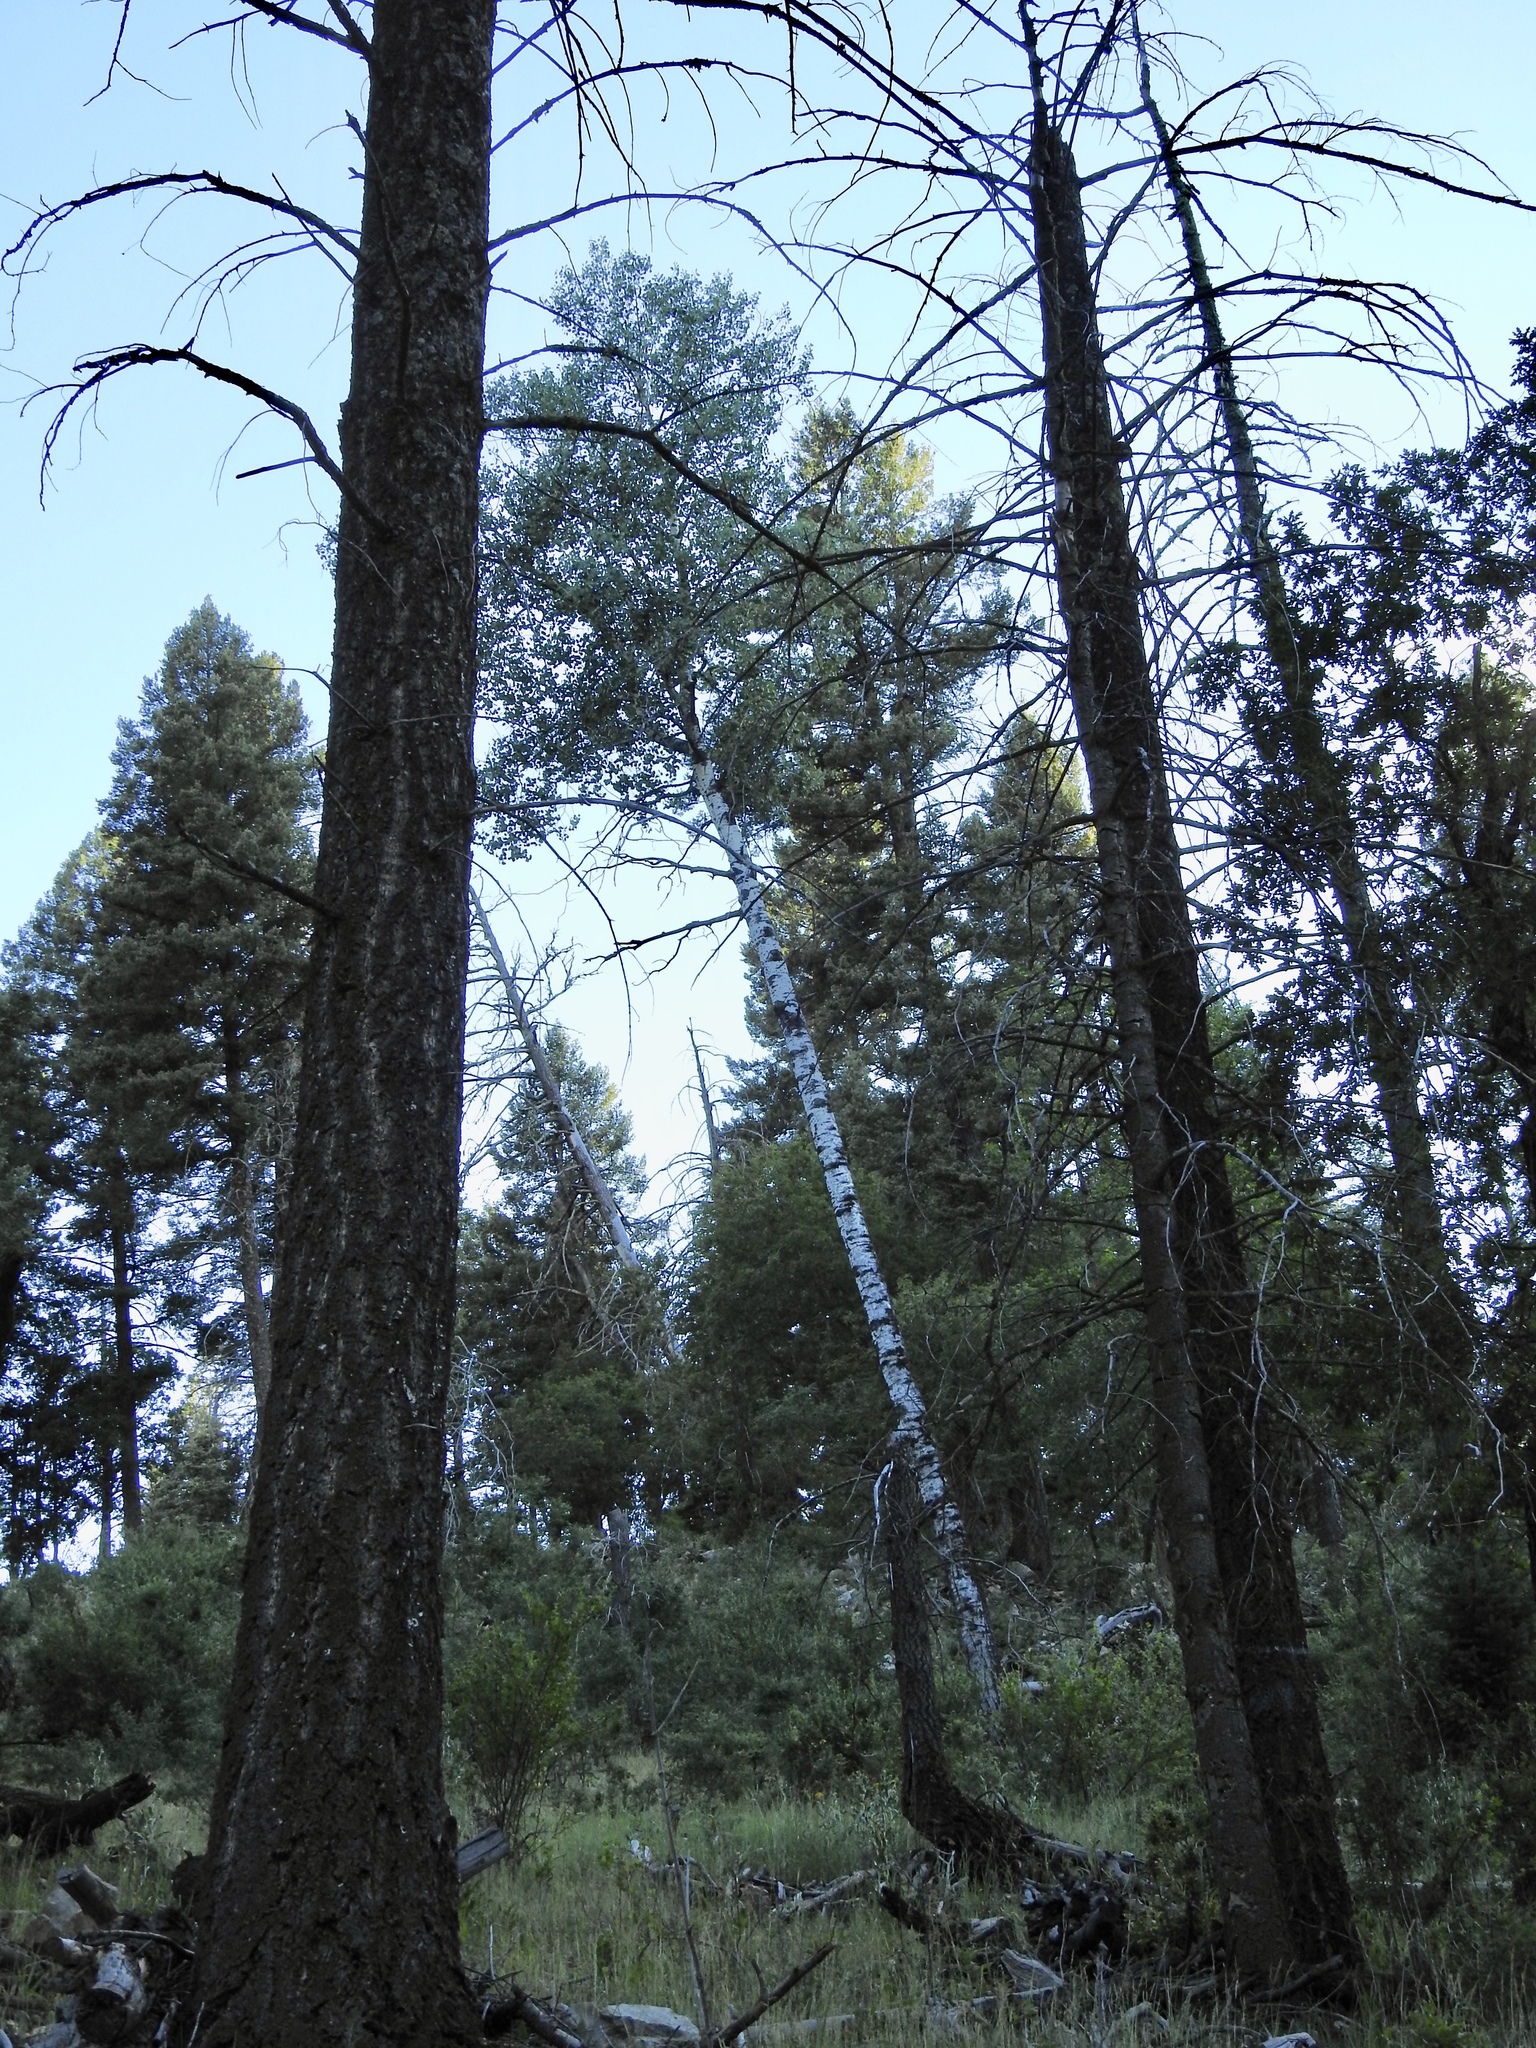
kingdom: Plantae
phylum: Tracheophyta
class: Magnoliopsida
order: Malpighiales
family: Salicaceae
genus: Populus
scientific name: Populus tremuloides
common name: Quaking aspen
